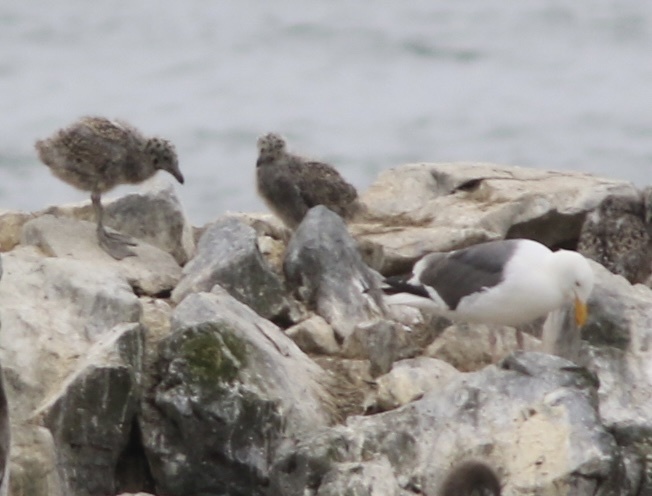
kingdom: Animalia
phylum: Chordata
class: Aves
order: Charadriiformes
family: Laridae
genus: Larus
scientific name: Larus occidentalis
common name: Western gull
